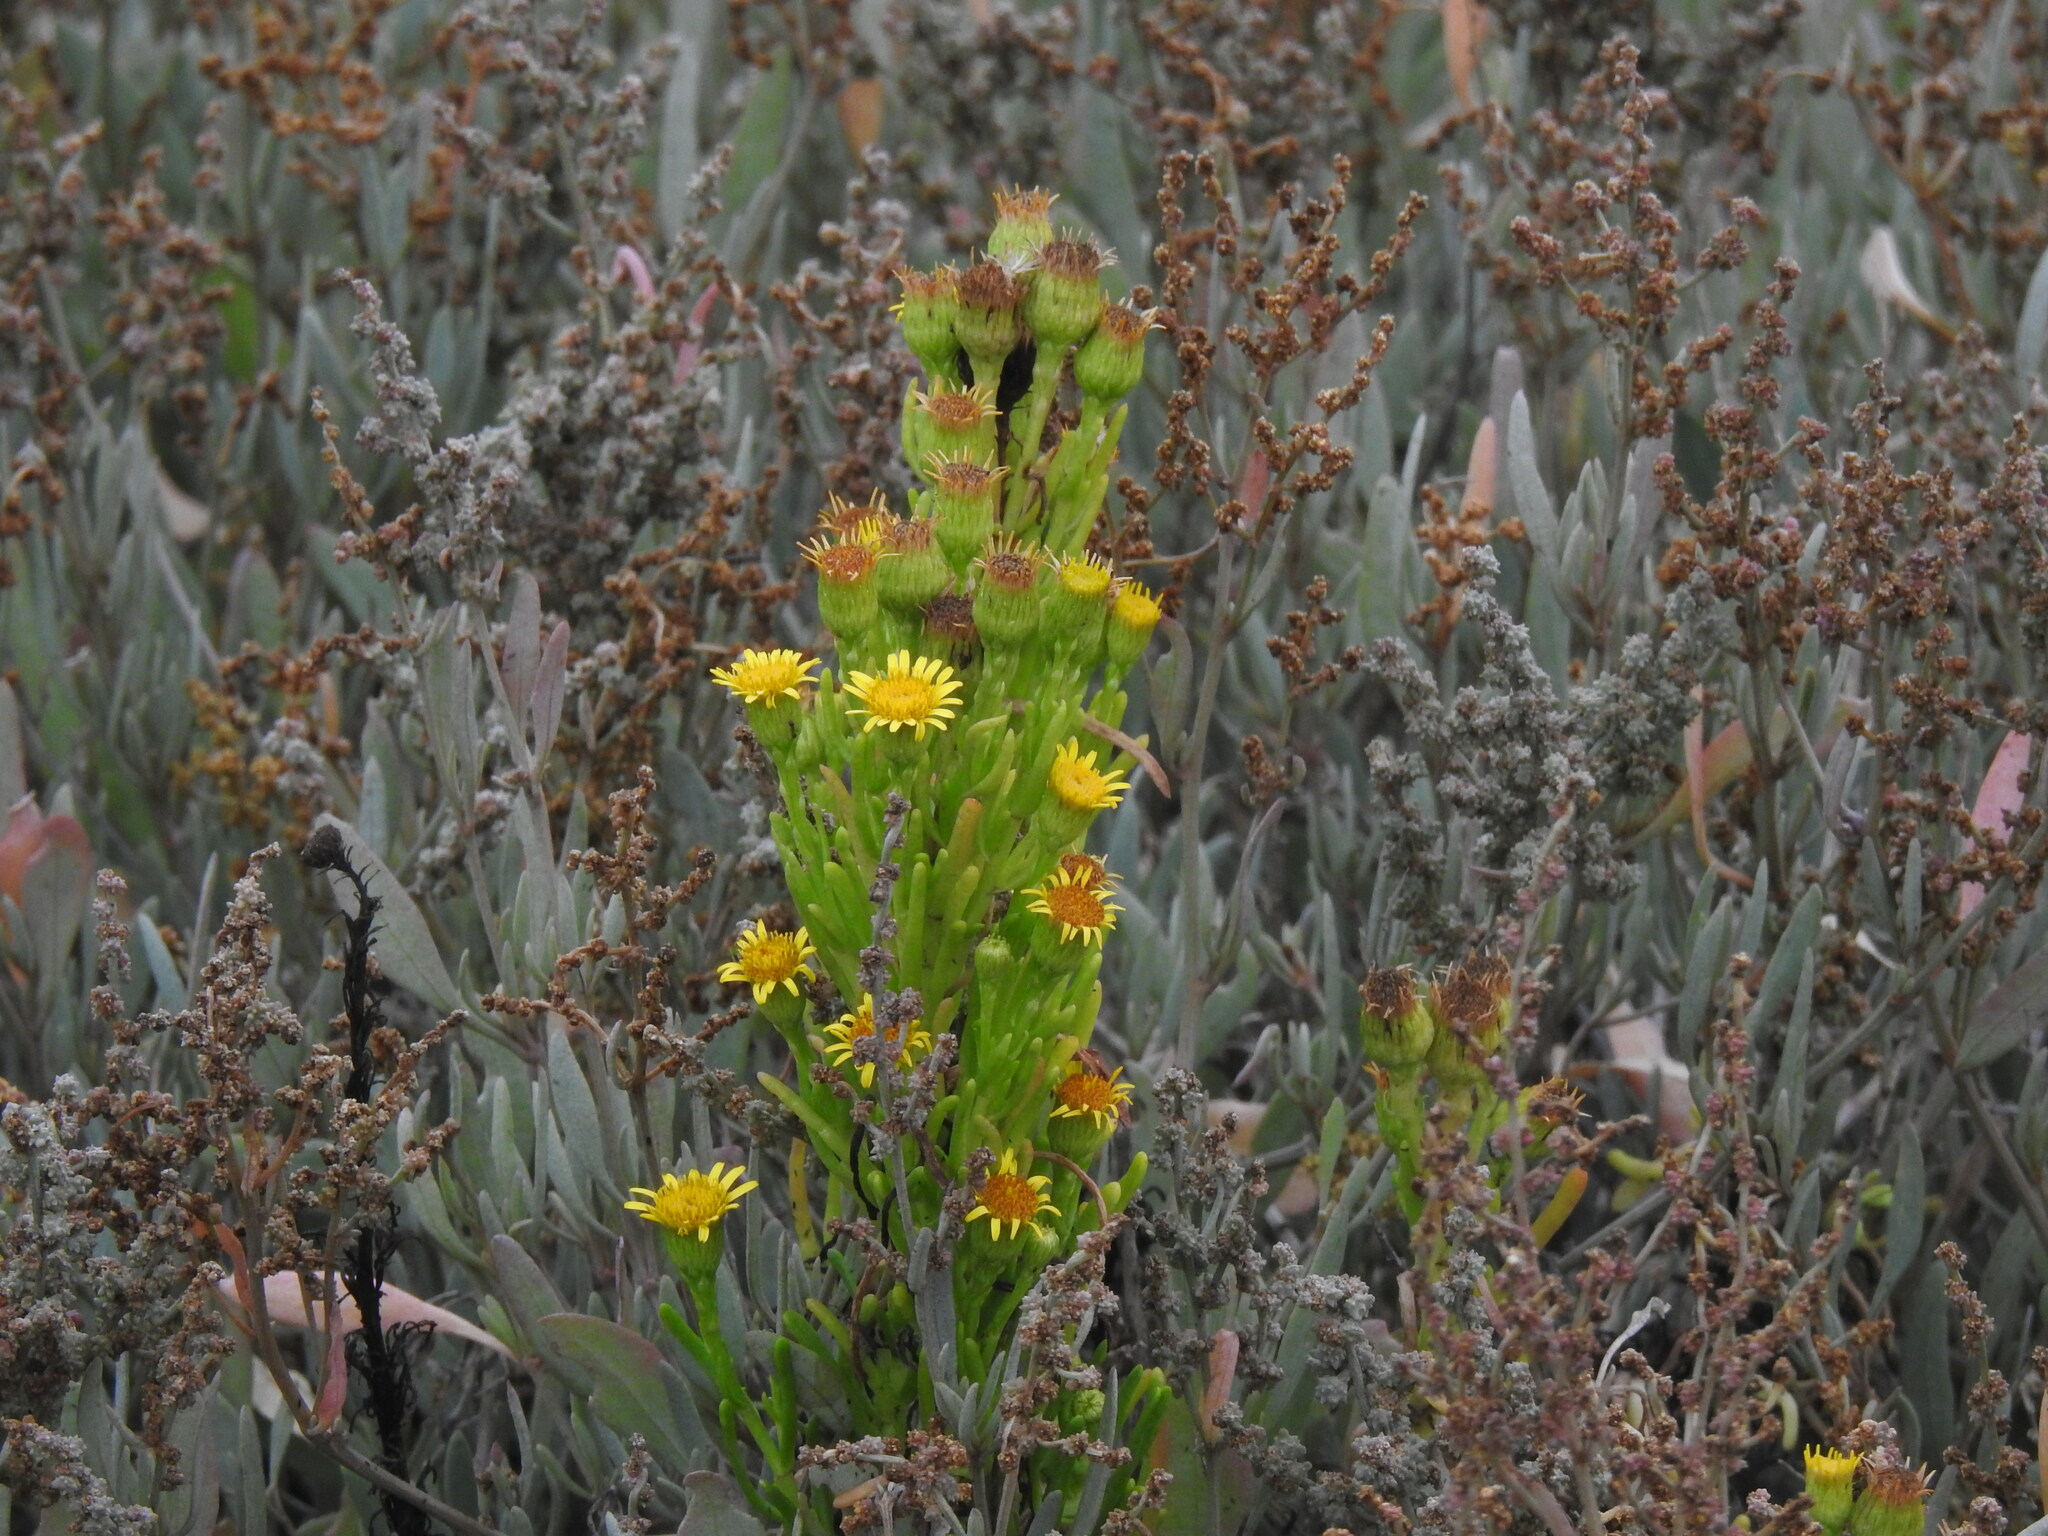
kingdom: Plantae
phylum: Tracheophyta
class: Magnoliopsida
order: Asterales
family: Asteraceae
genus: Limbarda
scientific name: Limbarda crithmoides
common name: Golden samphire
